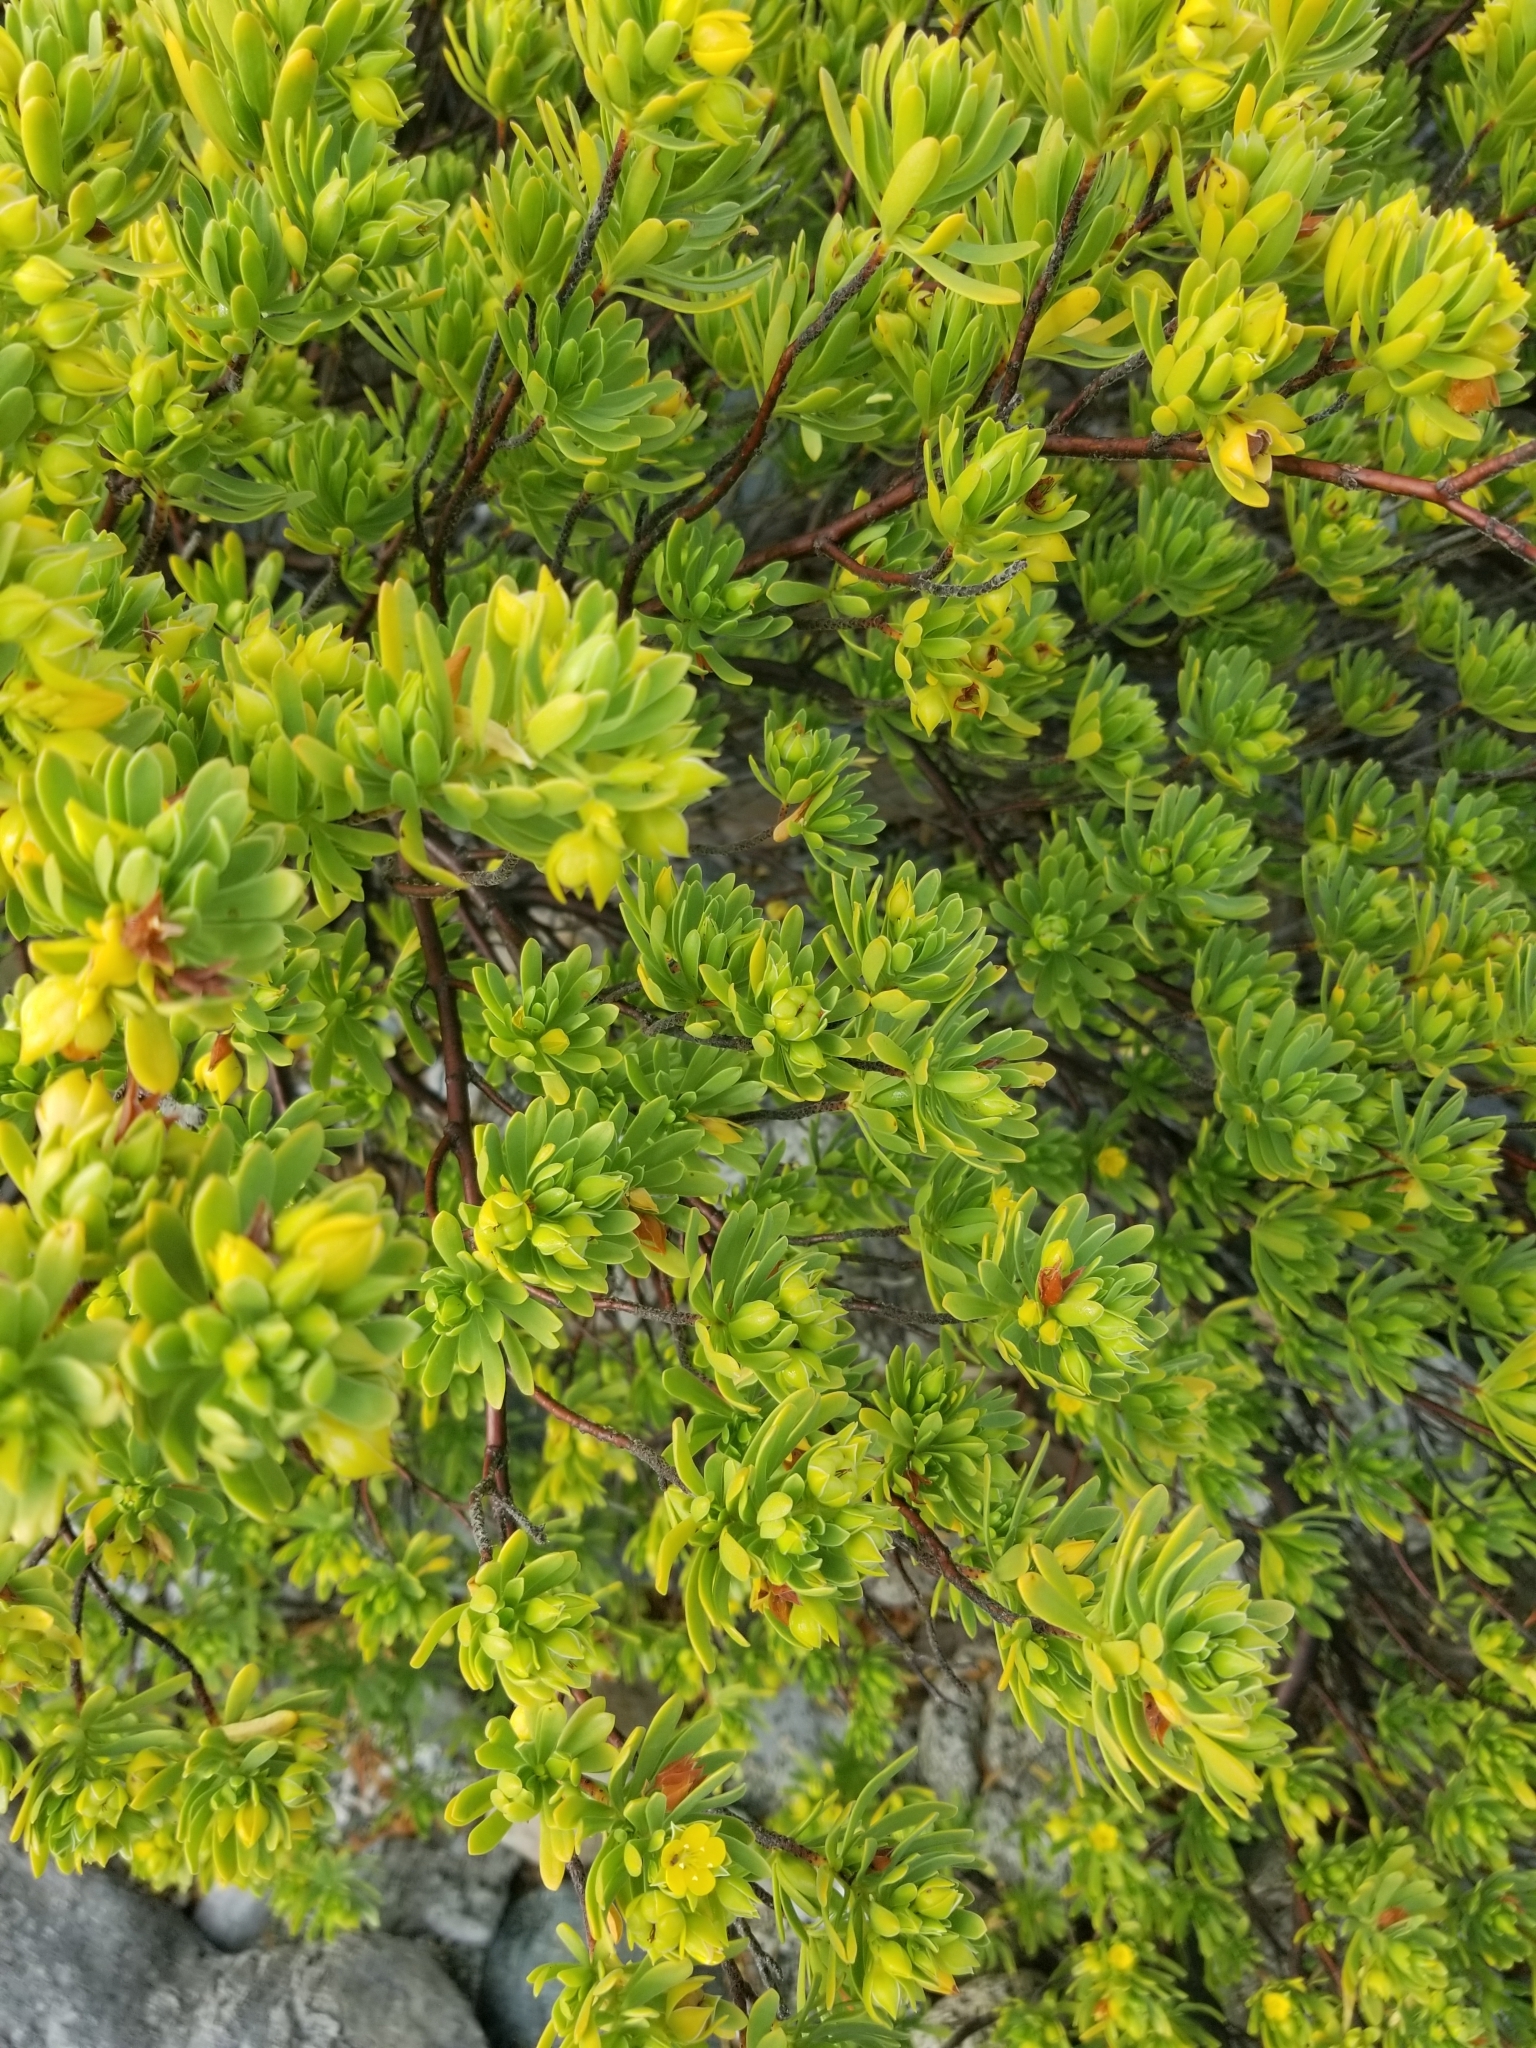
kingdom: Plantae
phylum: Tracheophyta
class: Magnoliopsida
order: Fabales
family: Surianaceae
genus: Suriana
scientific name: Suriana maritima
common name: Bay-cedar
